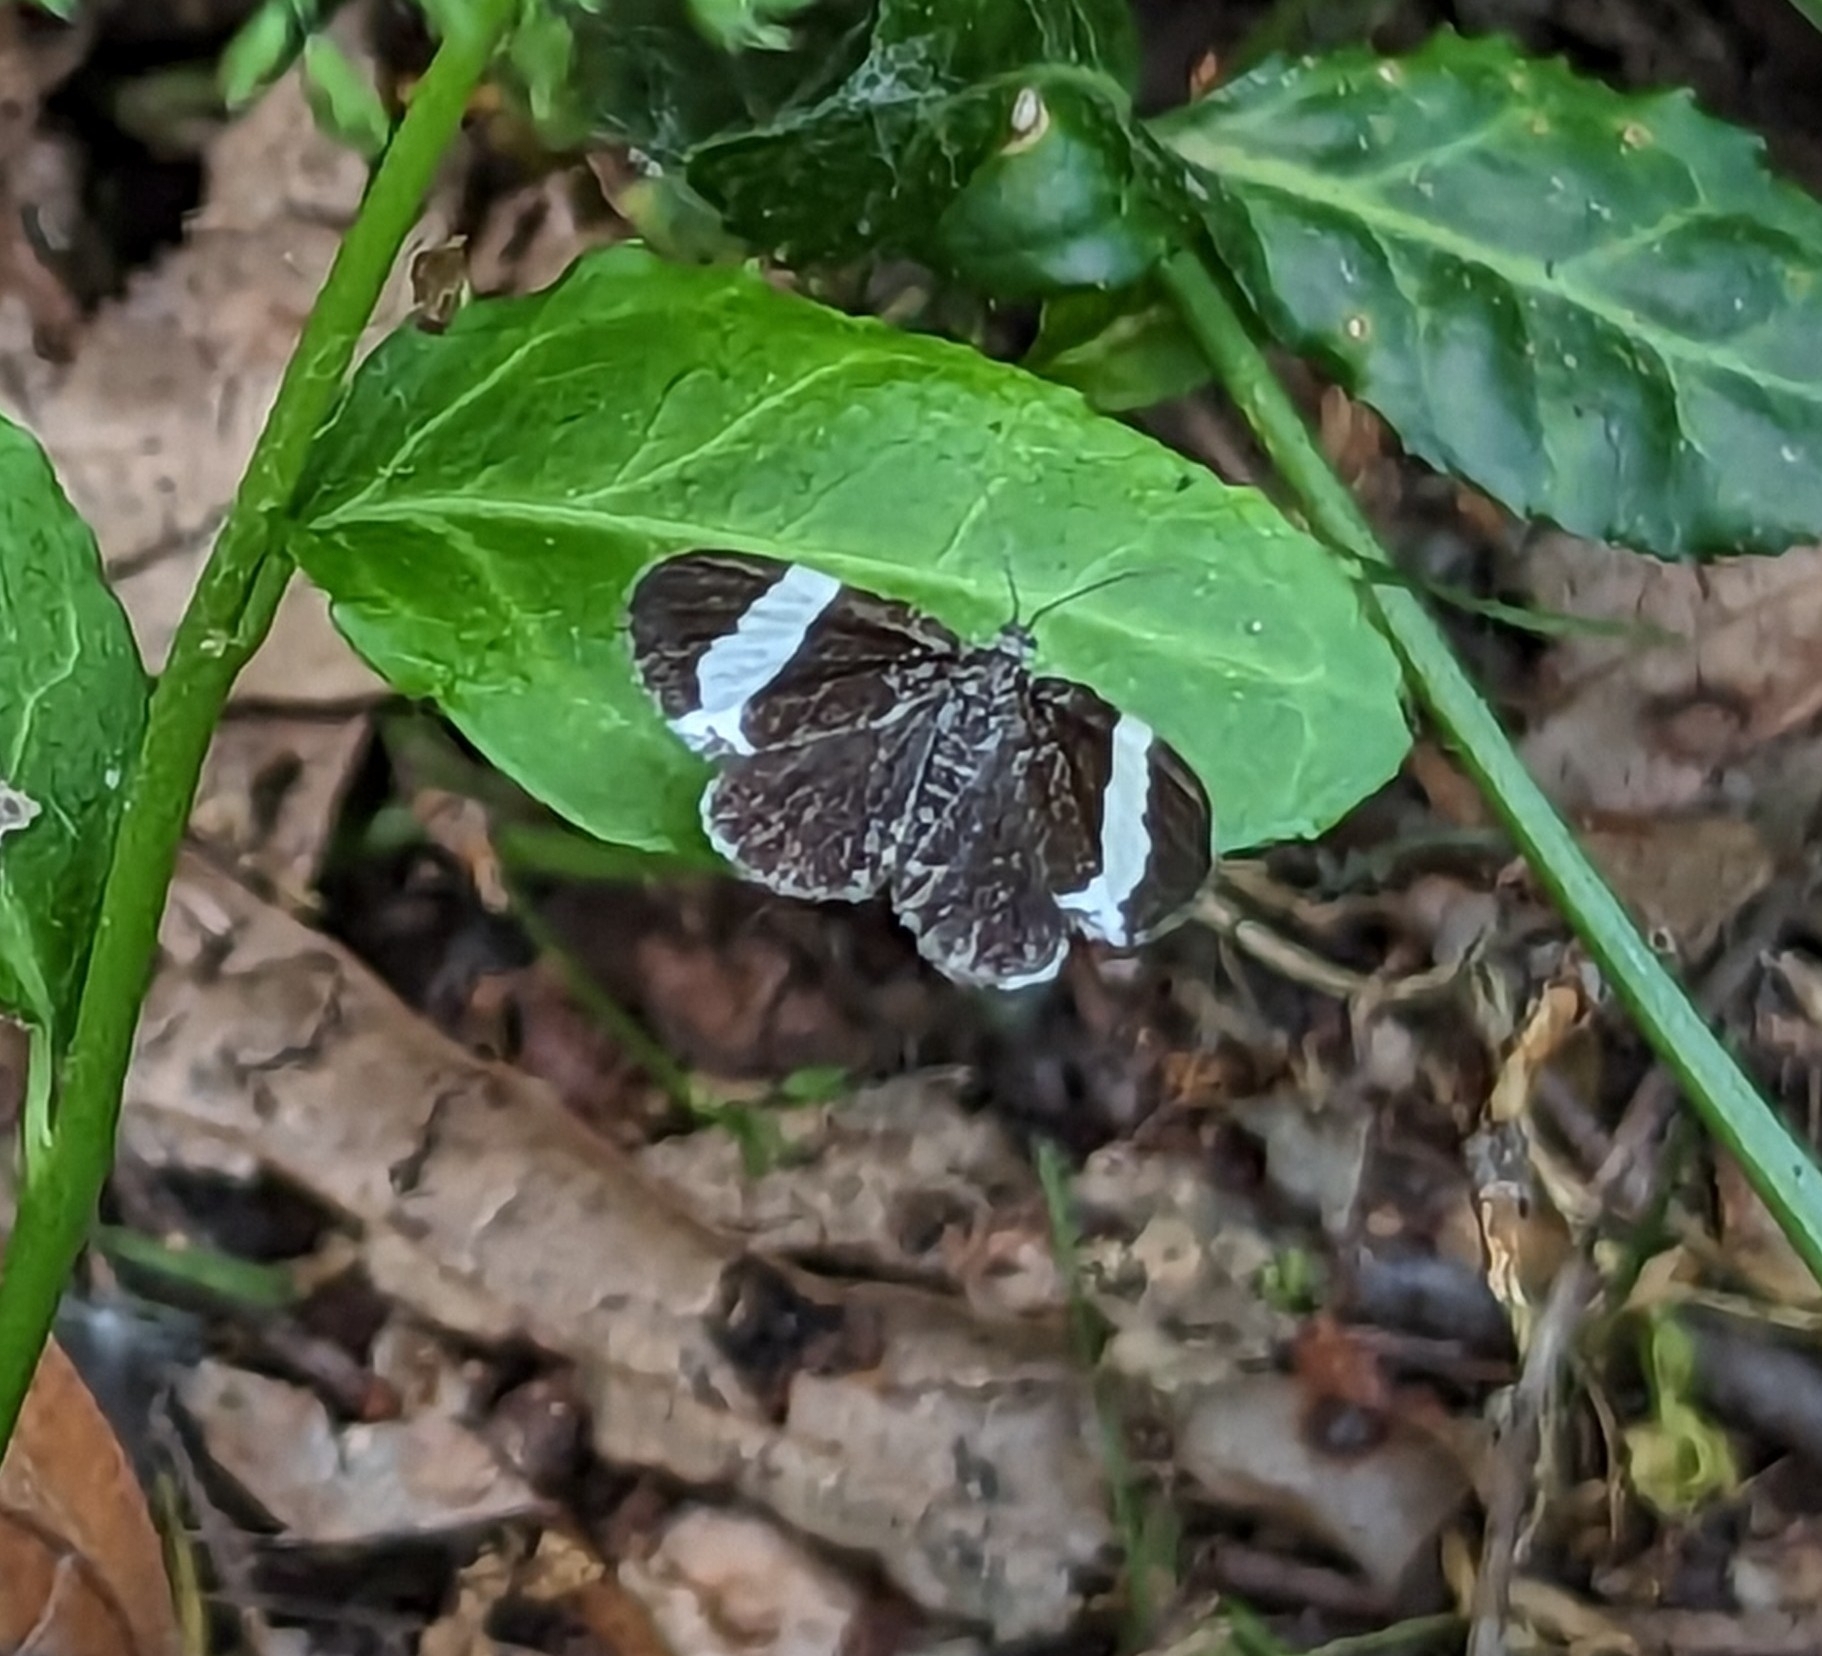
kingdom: Animalia
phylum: Arthropoda
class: Insecta
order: Lepidoptera
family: Geometridae
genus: Trichodezia
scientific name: Trichodezia albovittata
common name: White striped black
